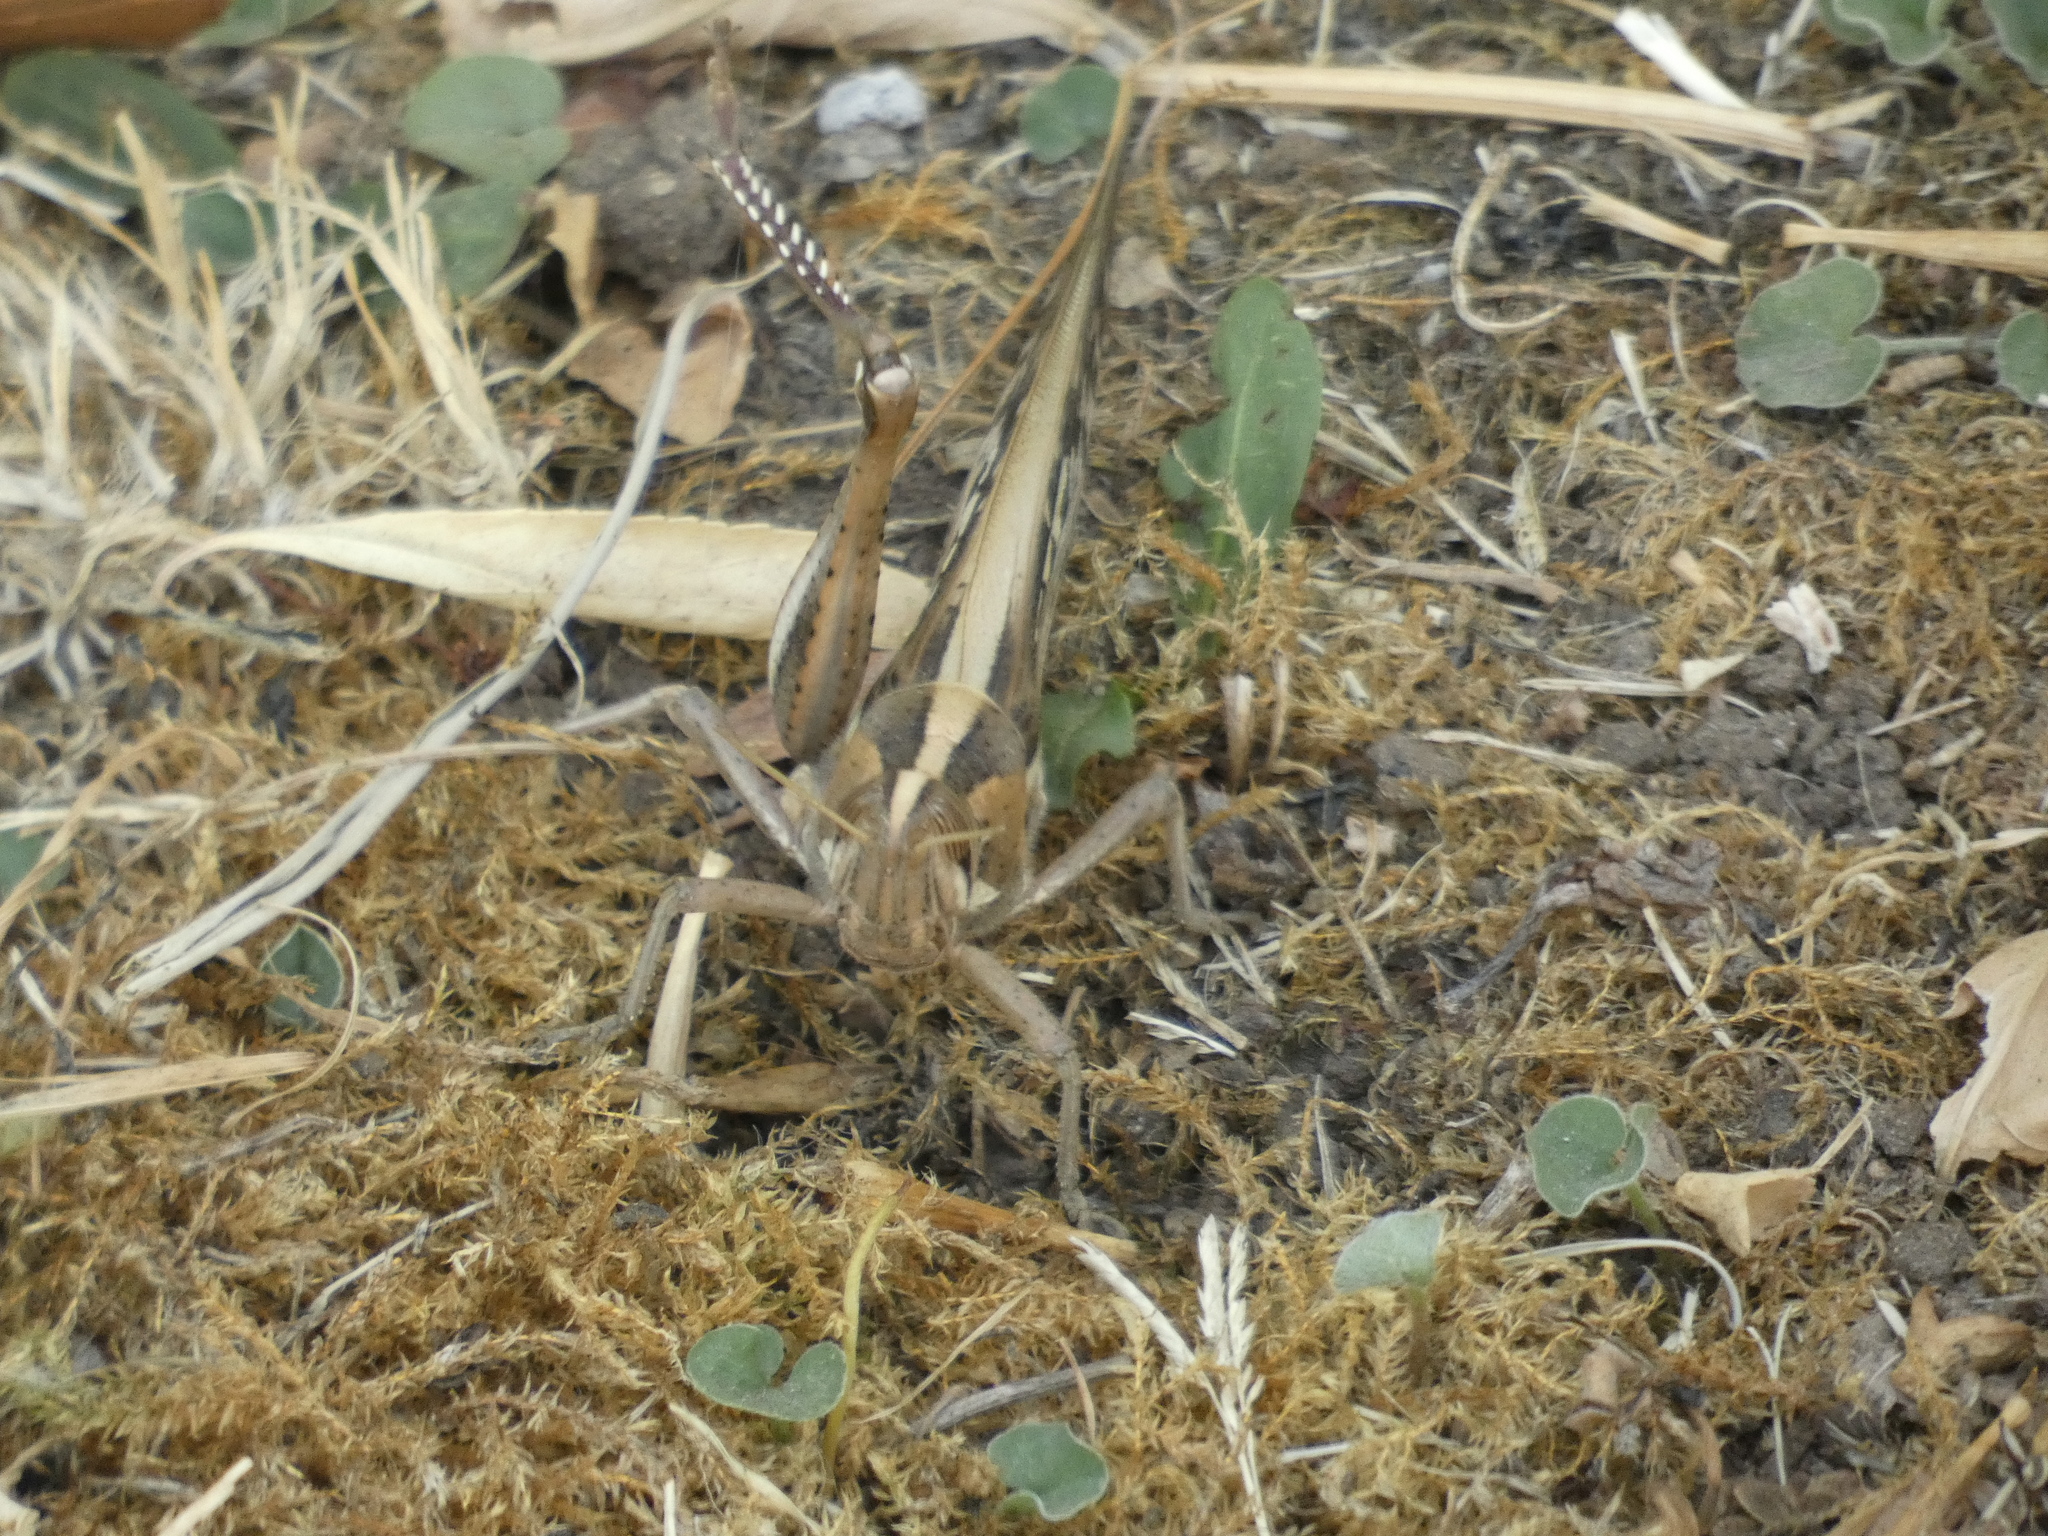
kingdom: Animalia
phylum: Arthropoda
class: Insecta
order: Orthoptera
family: Acrididae
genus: Schistocerca
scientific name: Schistocerca cancellata
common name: South american locust
